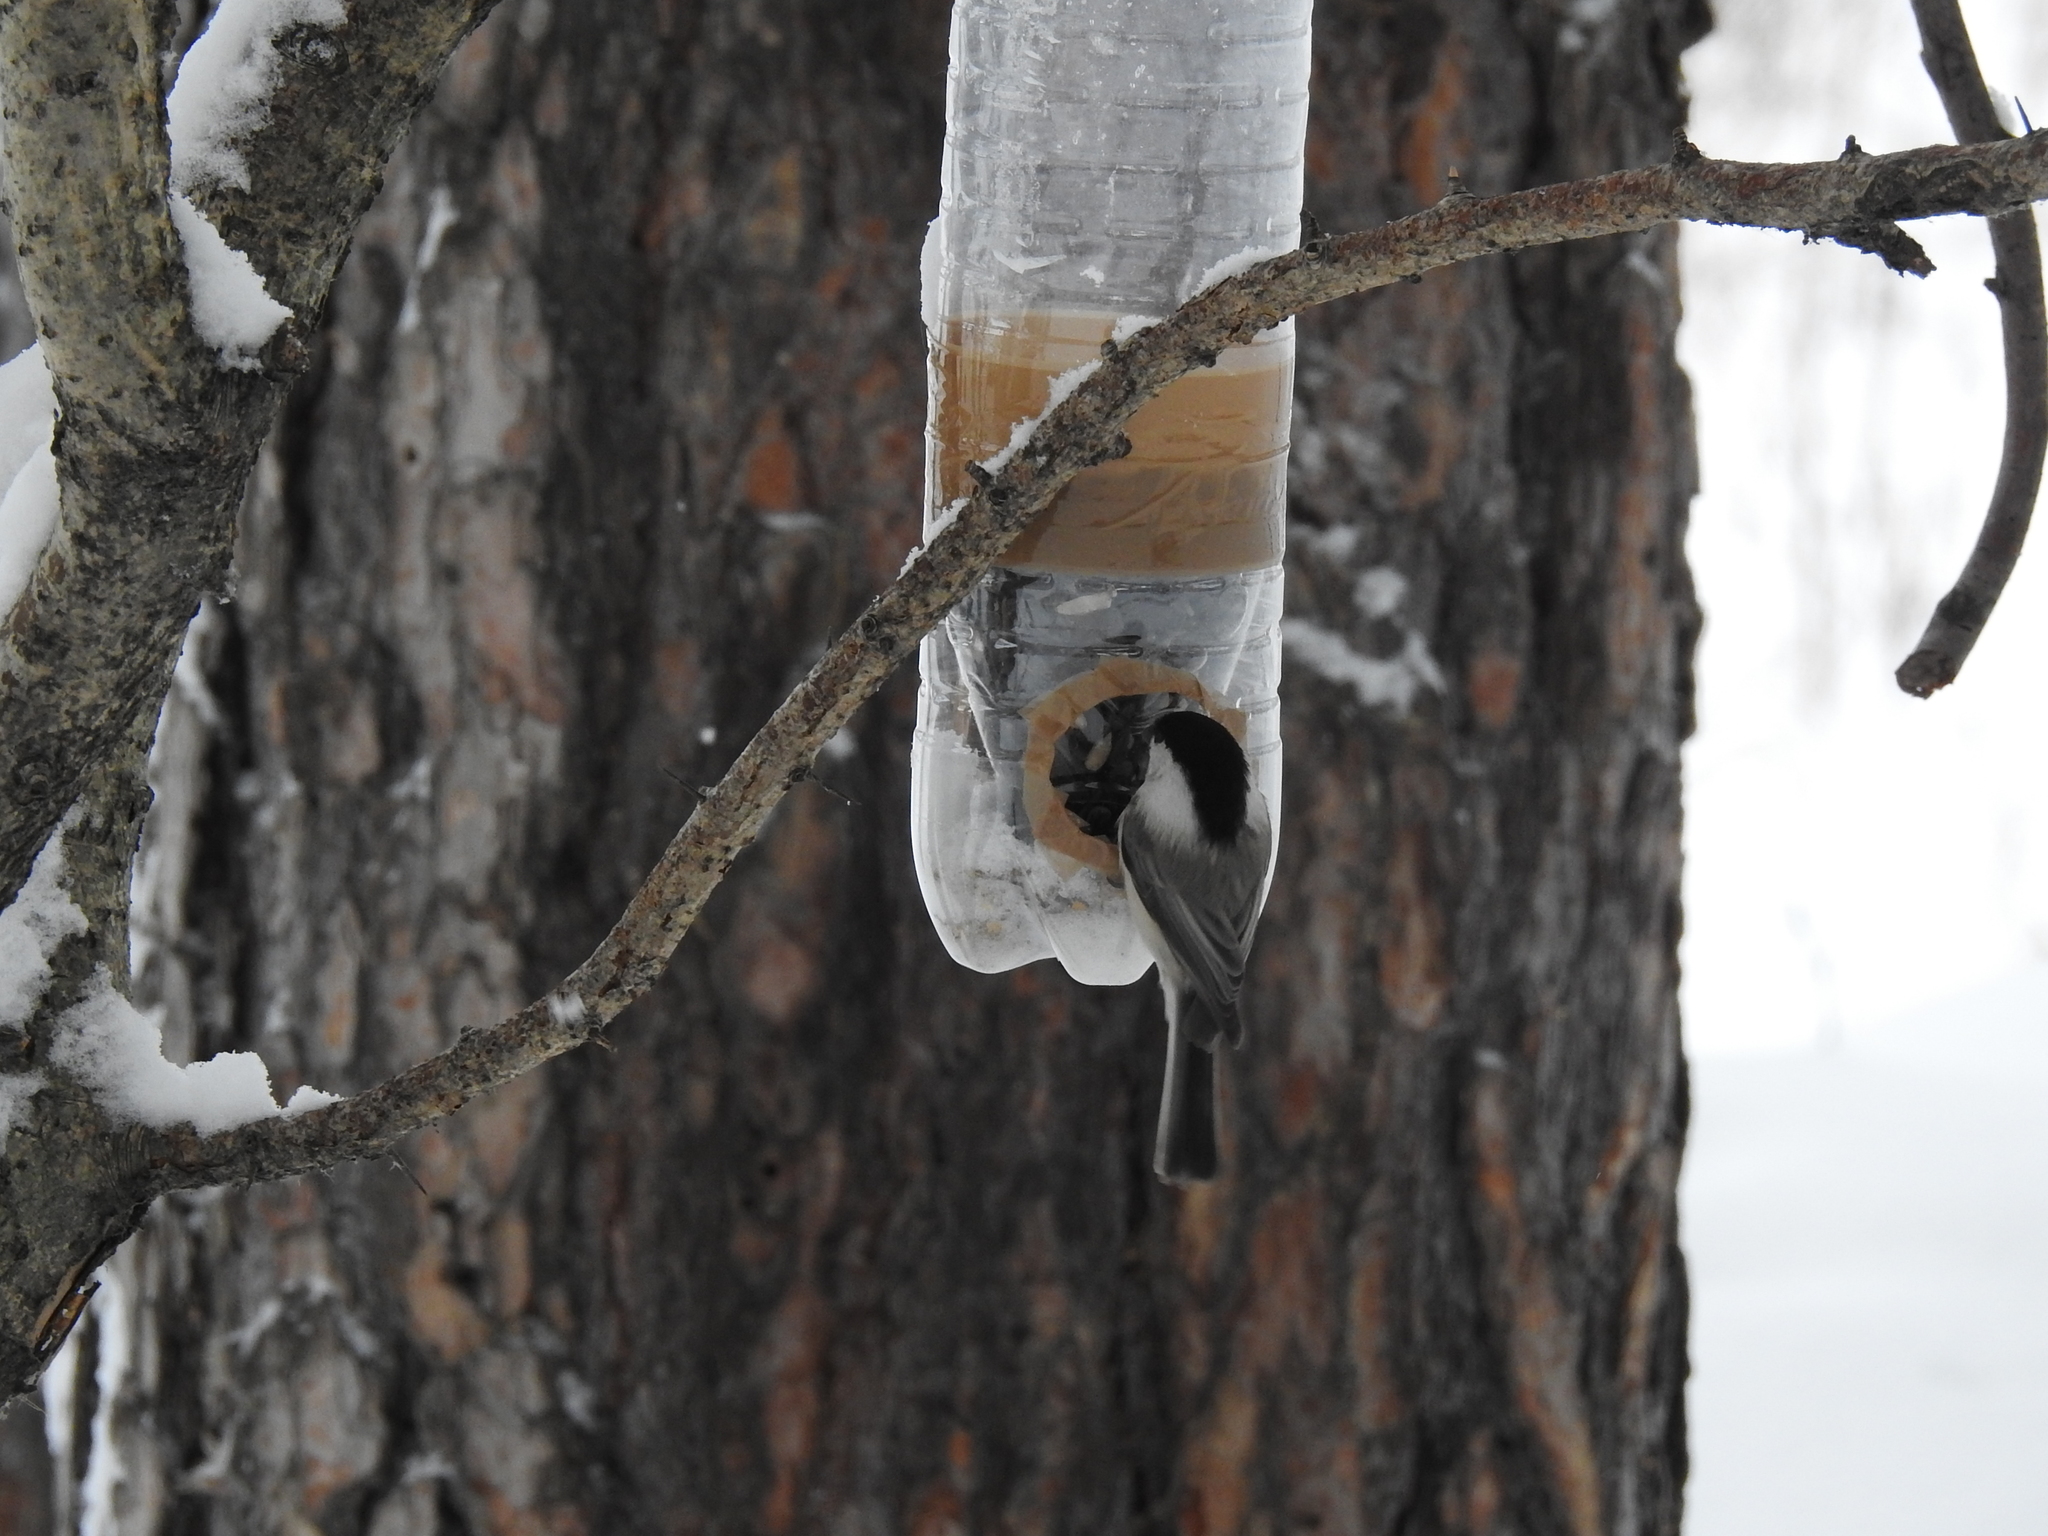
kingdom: Animalia
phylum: Chordata
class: Aves
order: Passeriformes
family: Paridae
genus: Poecile
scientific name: Poecile montanus
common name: Willow tit
